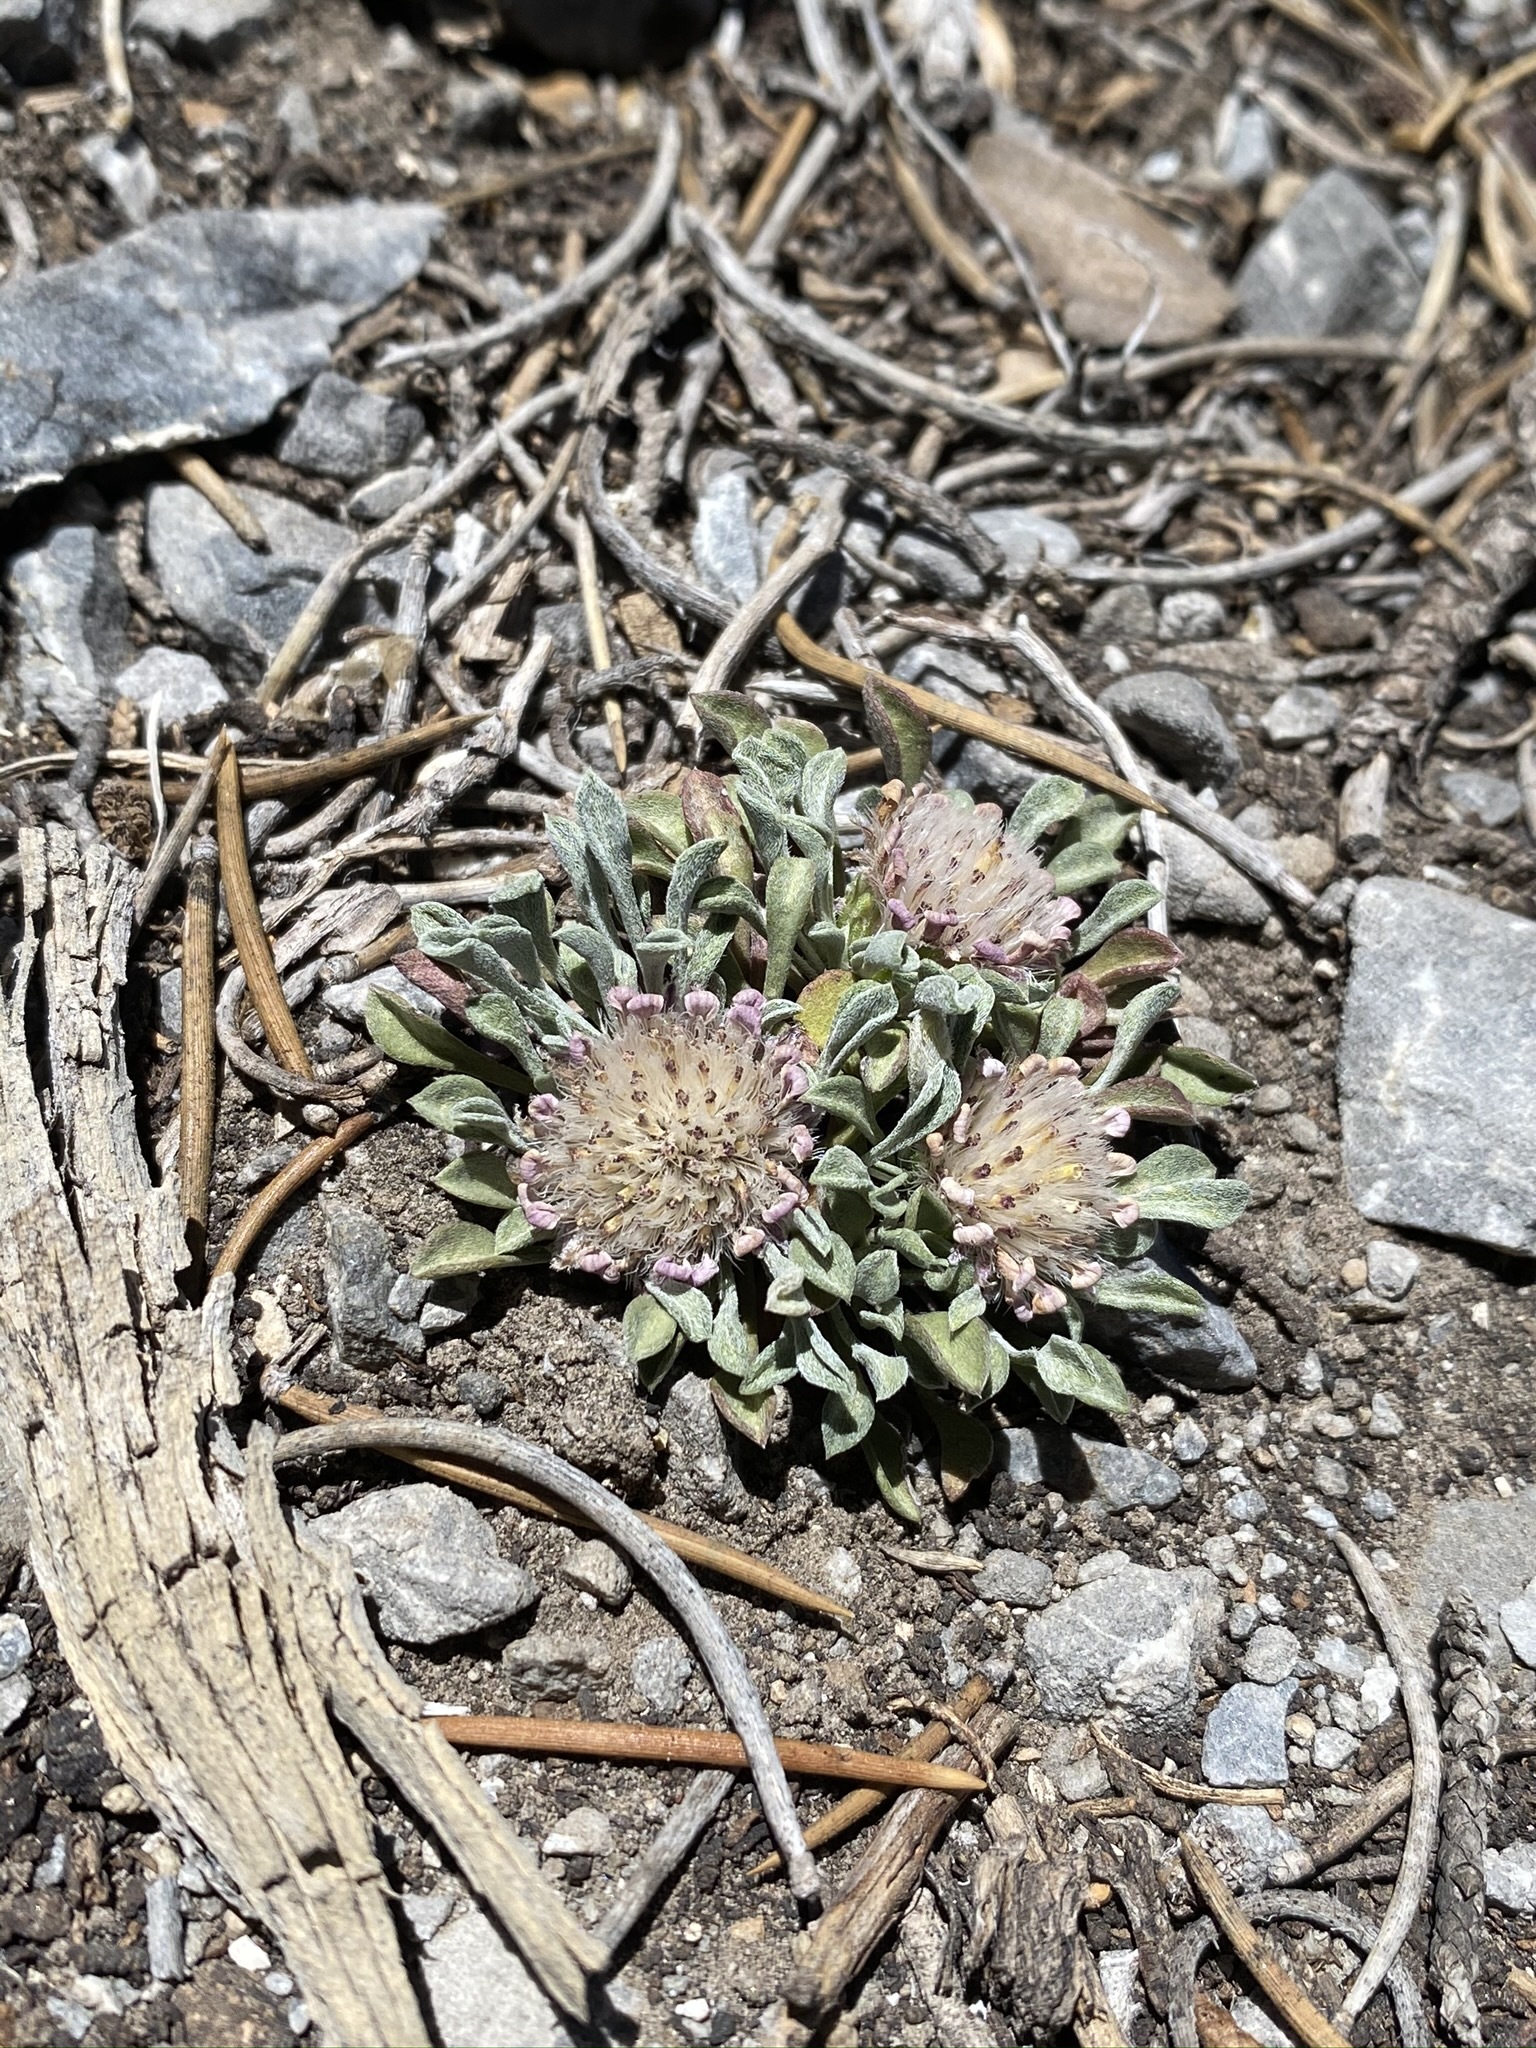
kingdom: Plantae
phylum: Tracheophyta
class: Magnoliopsida
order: Asterales
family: Asteraceae
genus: Townsendia
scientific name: Townsendia jonesii
